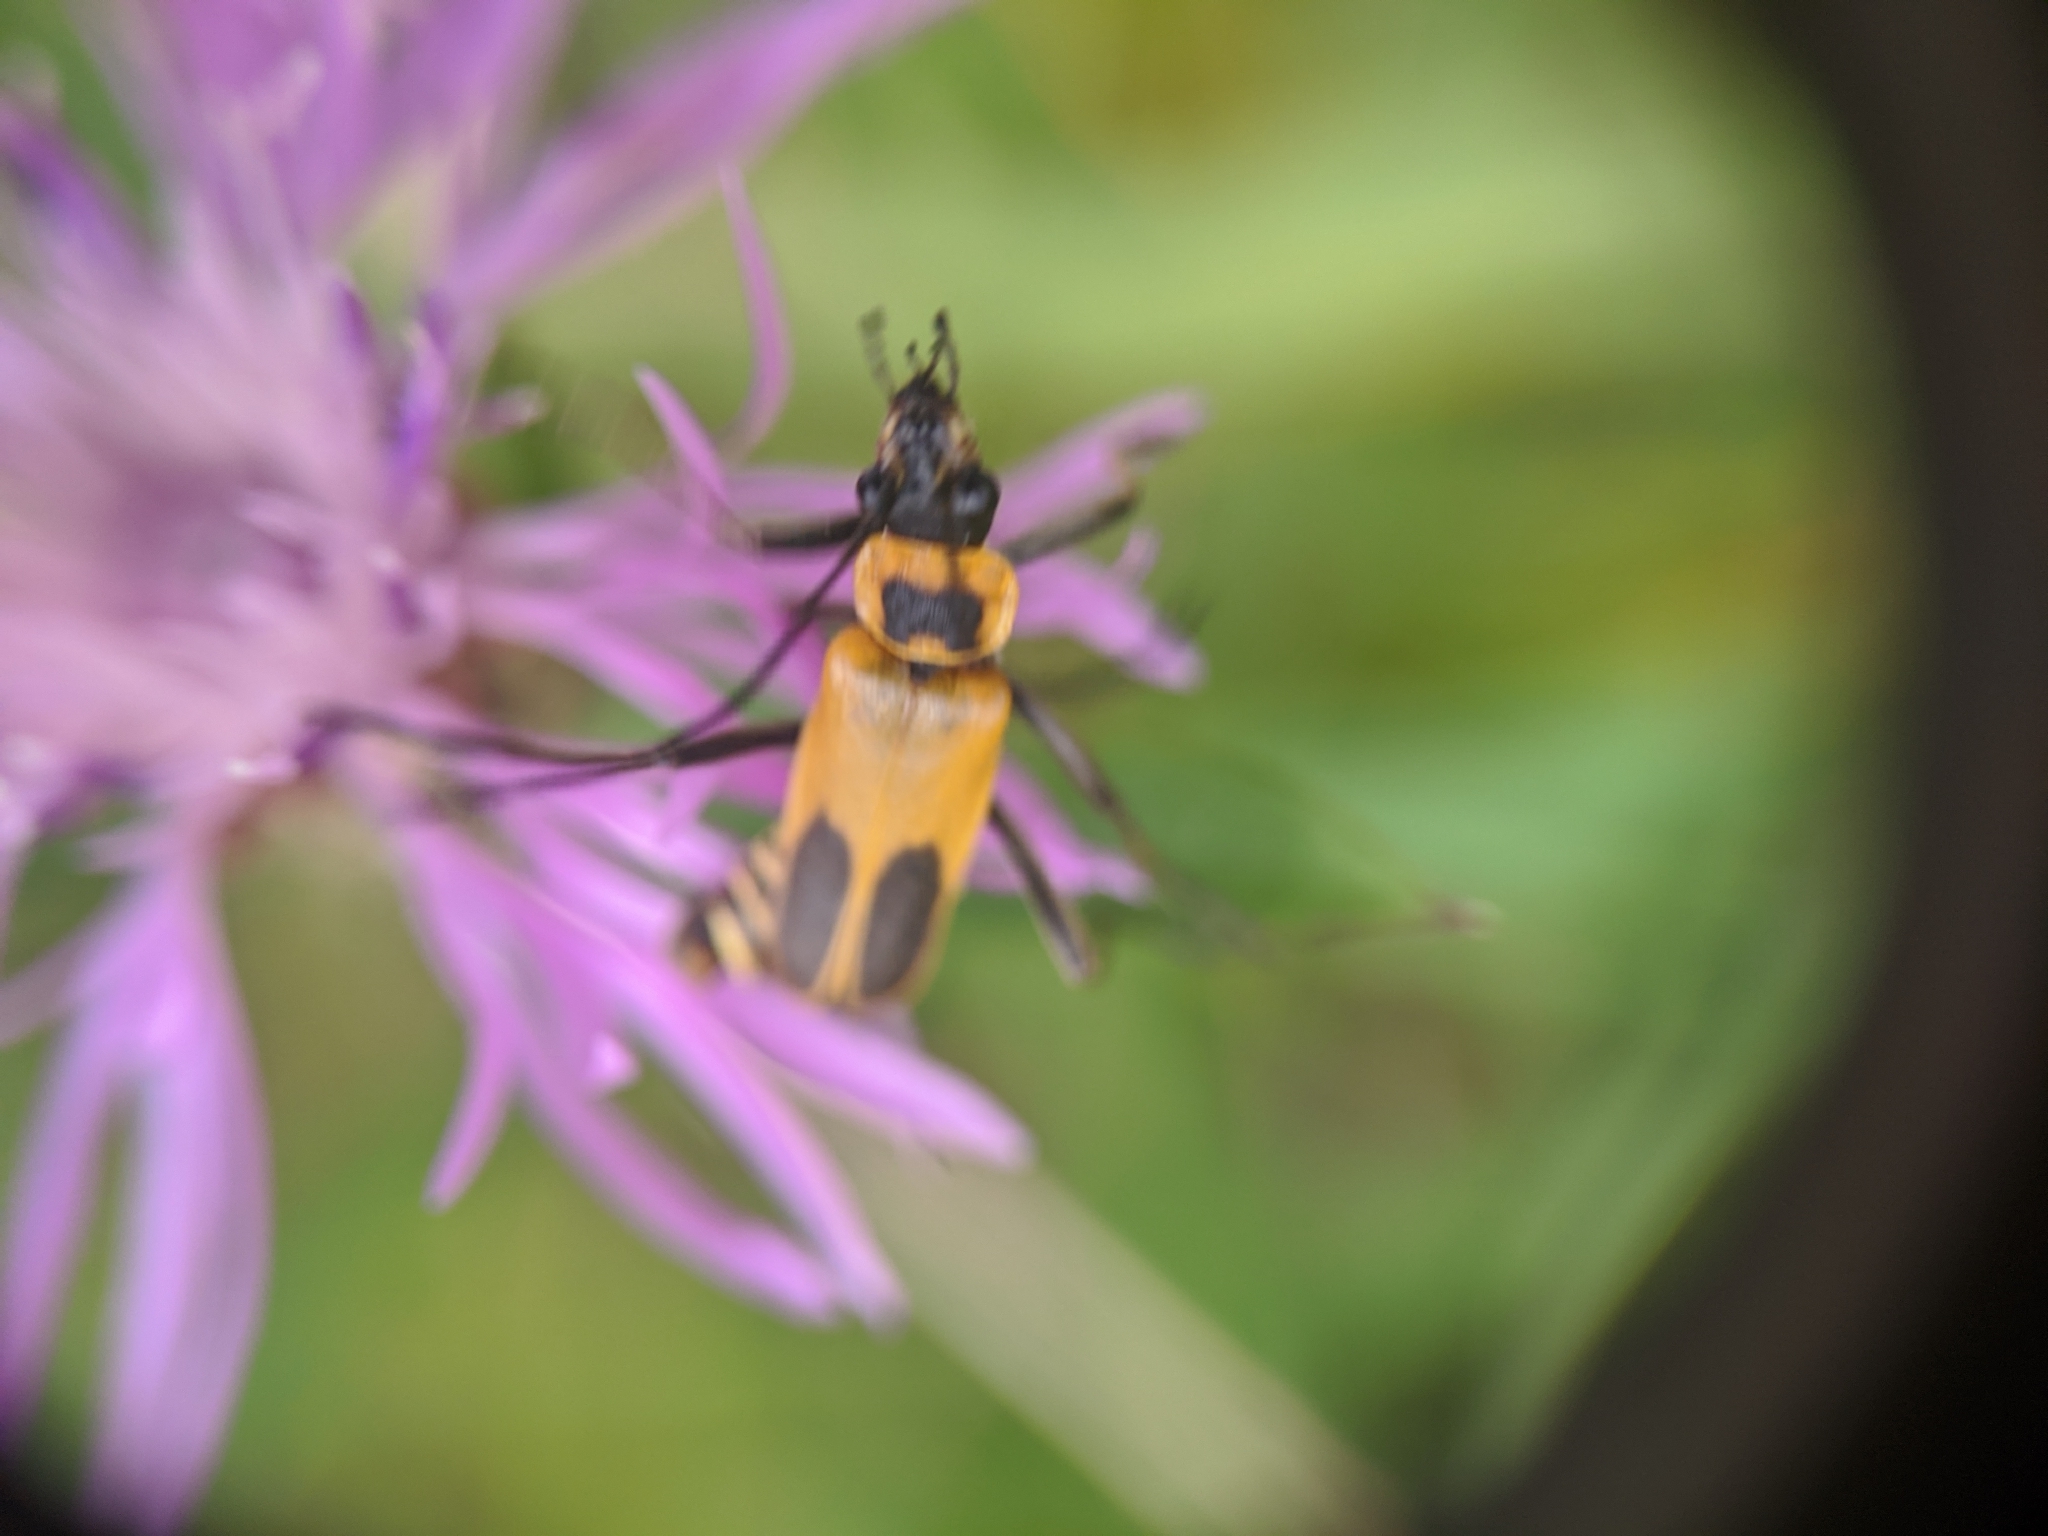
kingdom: Animalia
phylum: Arthropoda
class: Insecta
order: Coleoptera
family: Cantharidae
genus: Chauliognathus
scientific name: Chauliognathus pensylvanicus
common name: Goldenrod soldier beetle
